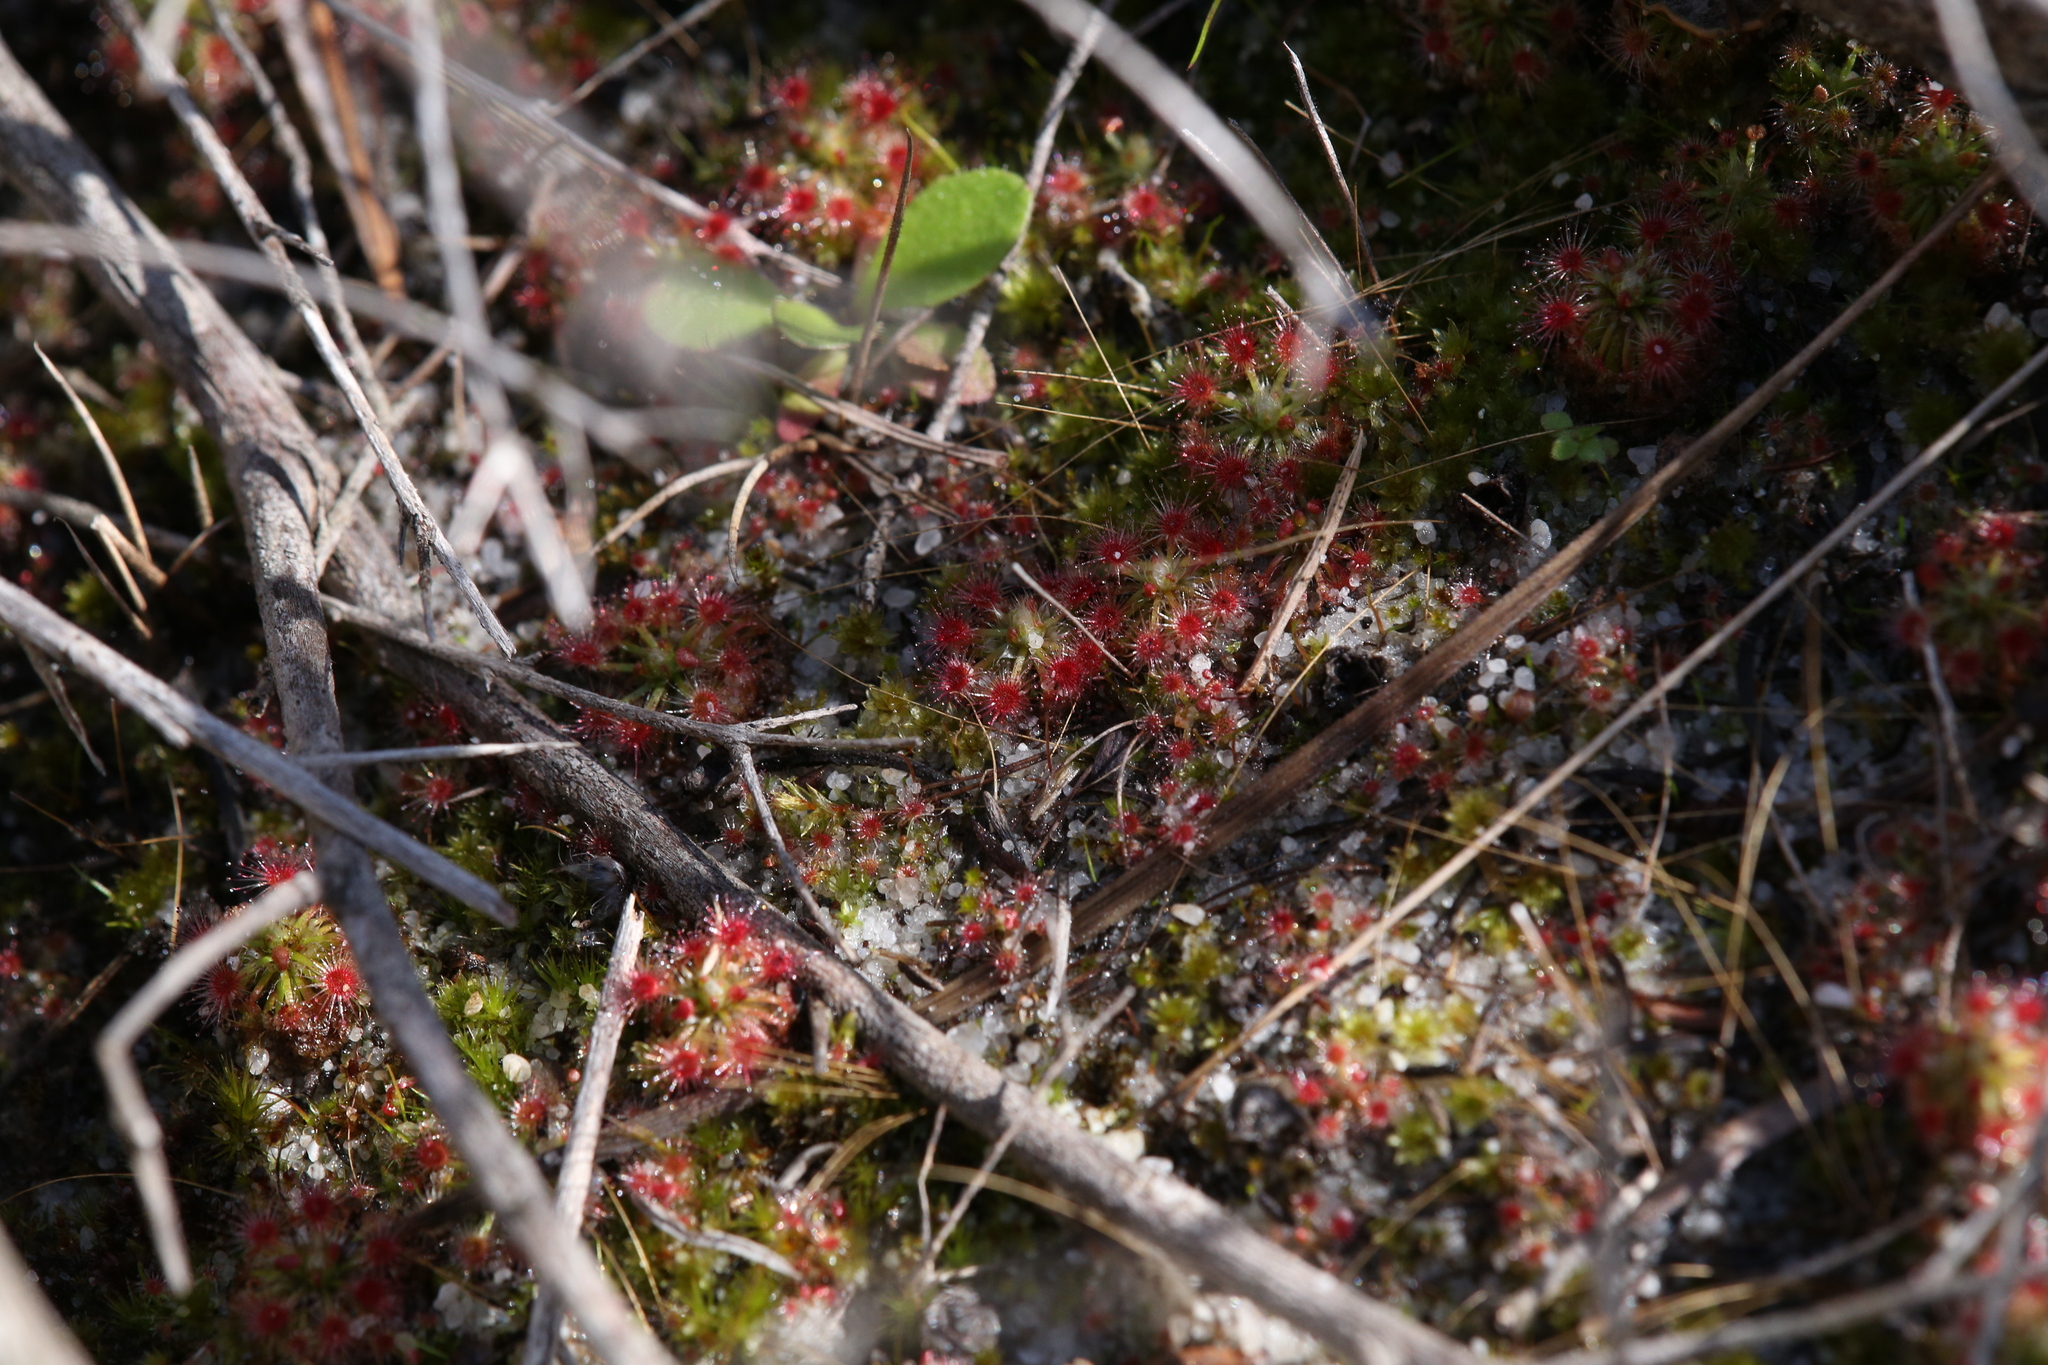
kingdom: Plantae
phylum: Tracheophyta
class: Magnoliopsida
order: Caryophyllales
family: Droseraceae
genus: Drosera
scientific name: Drosera paleacea
